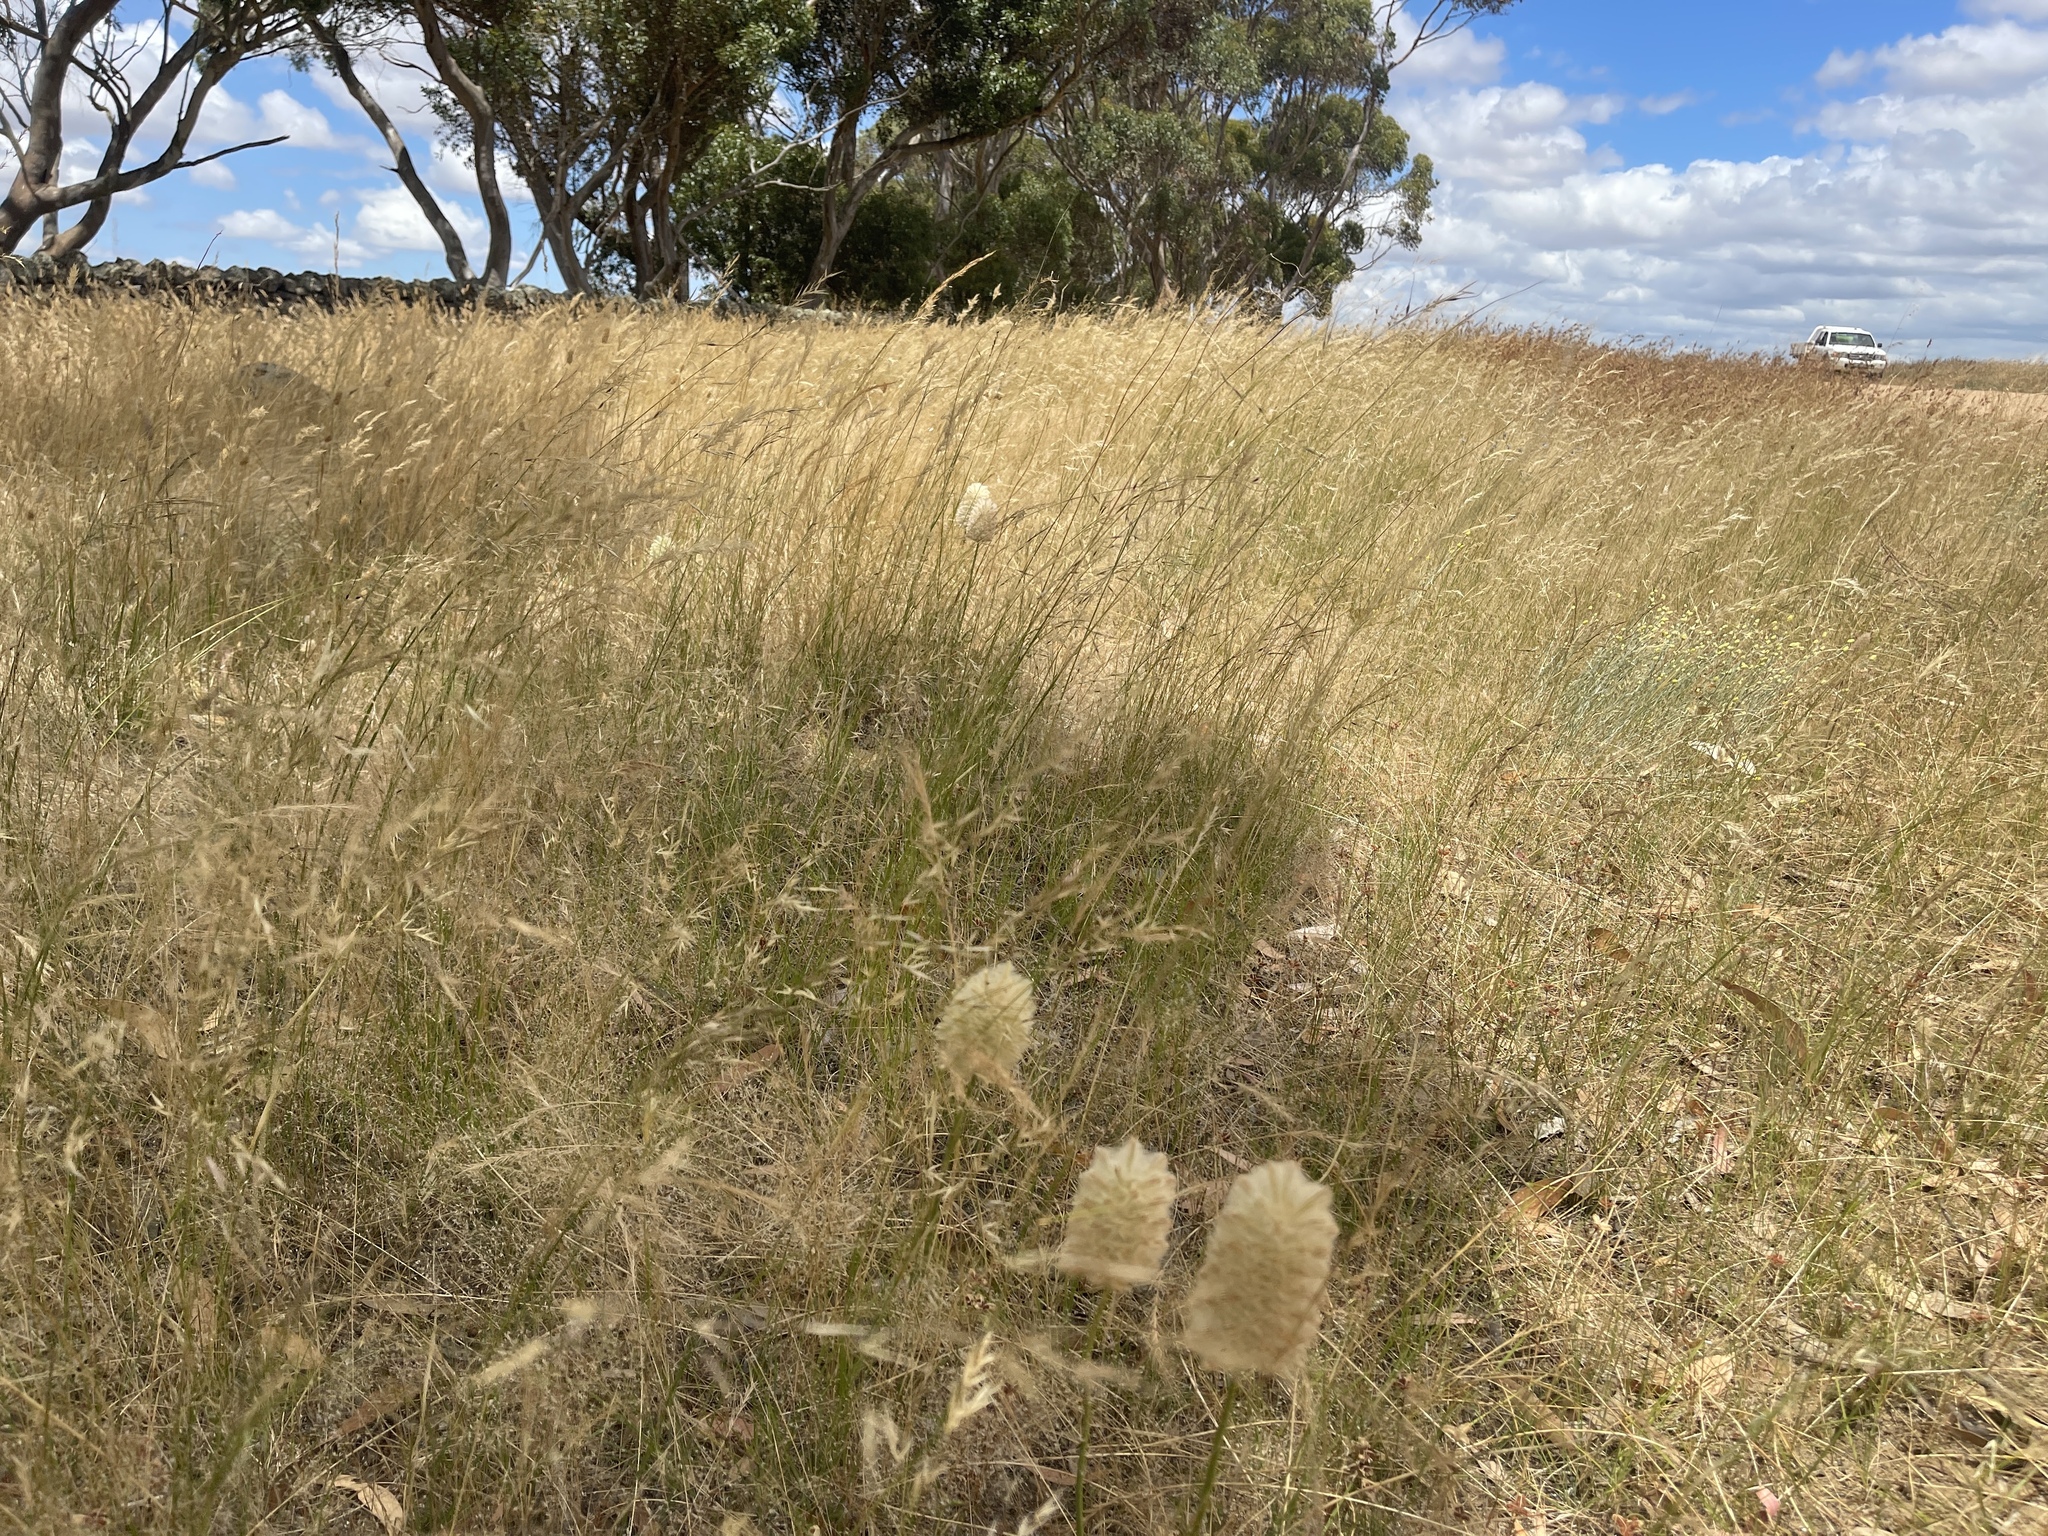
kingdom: Plantae
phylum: Tracheophyta
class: Magnoliopsida
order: Caryophyllales
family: Amaranthaceae
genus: Ptilotus
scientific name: Ptilotus macrocephalus
